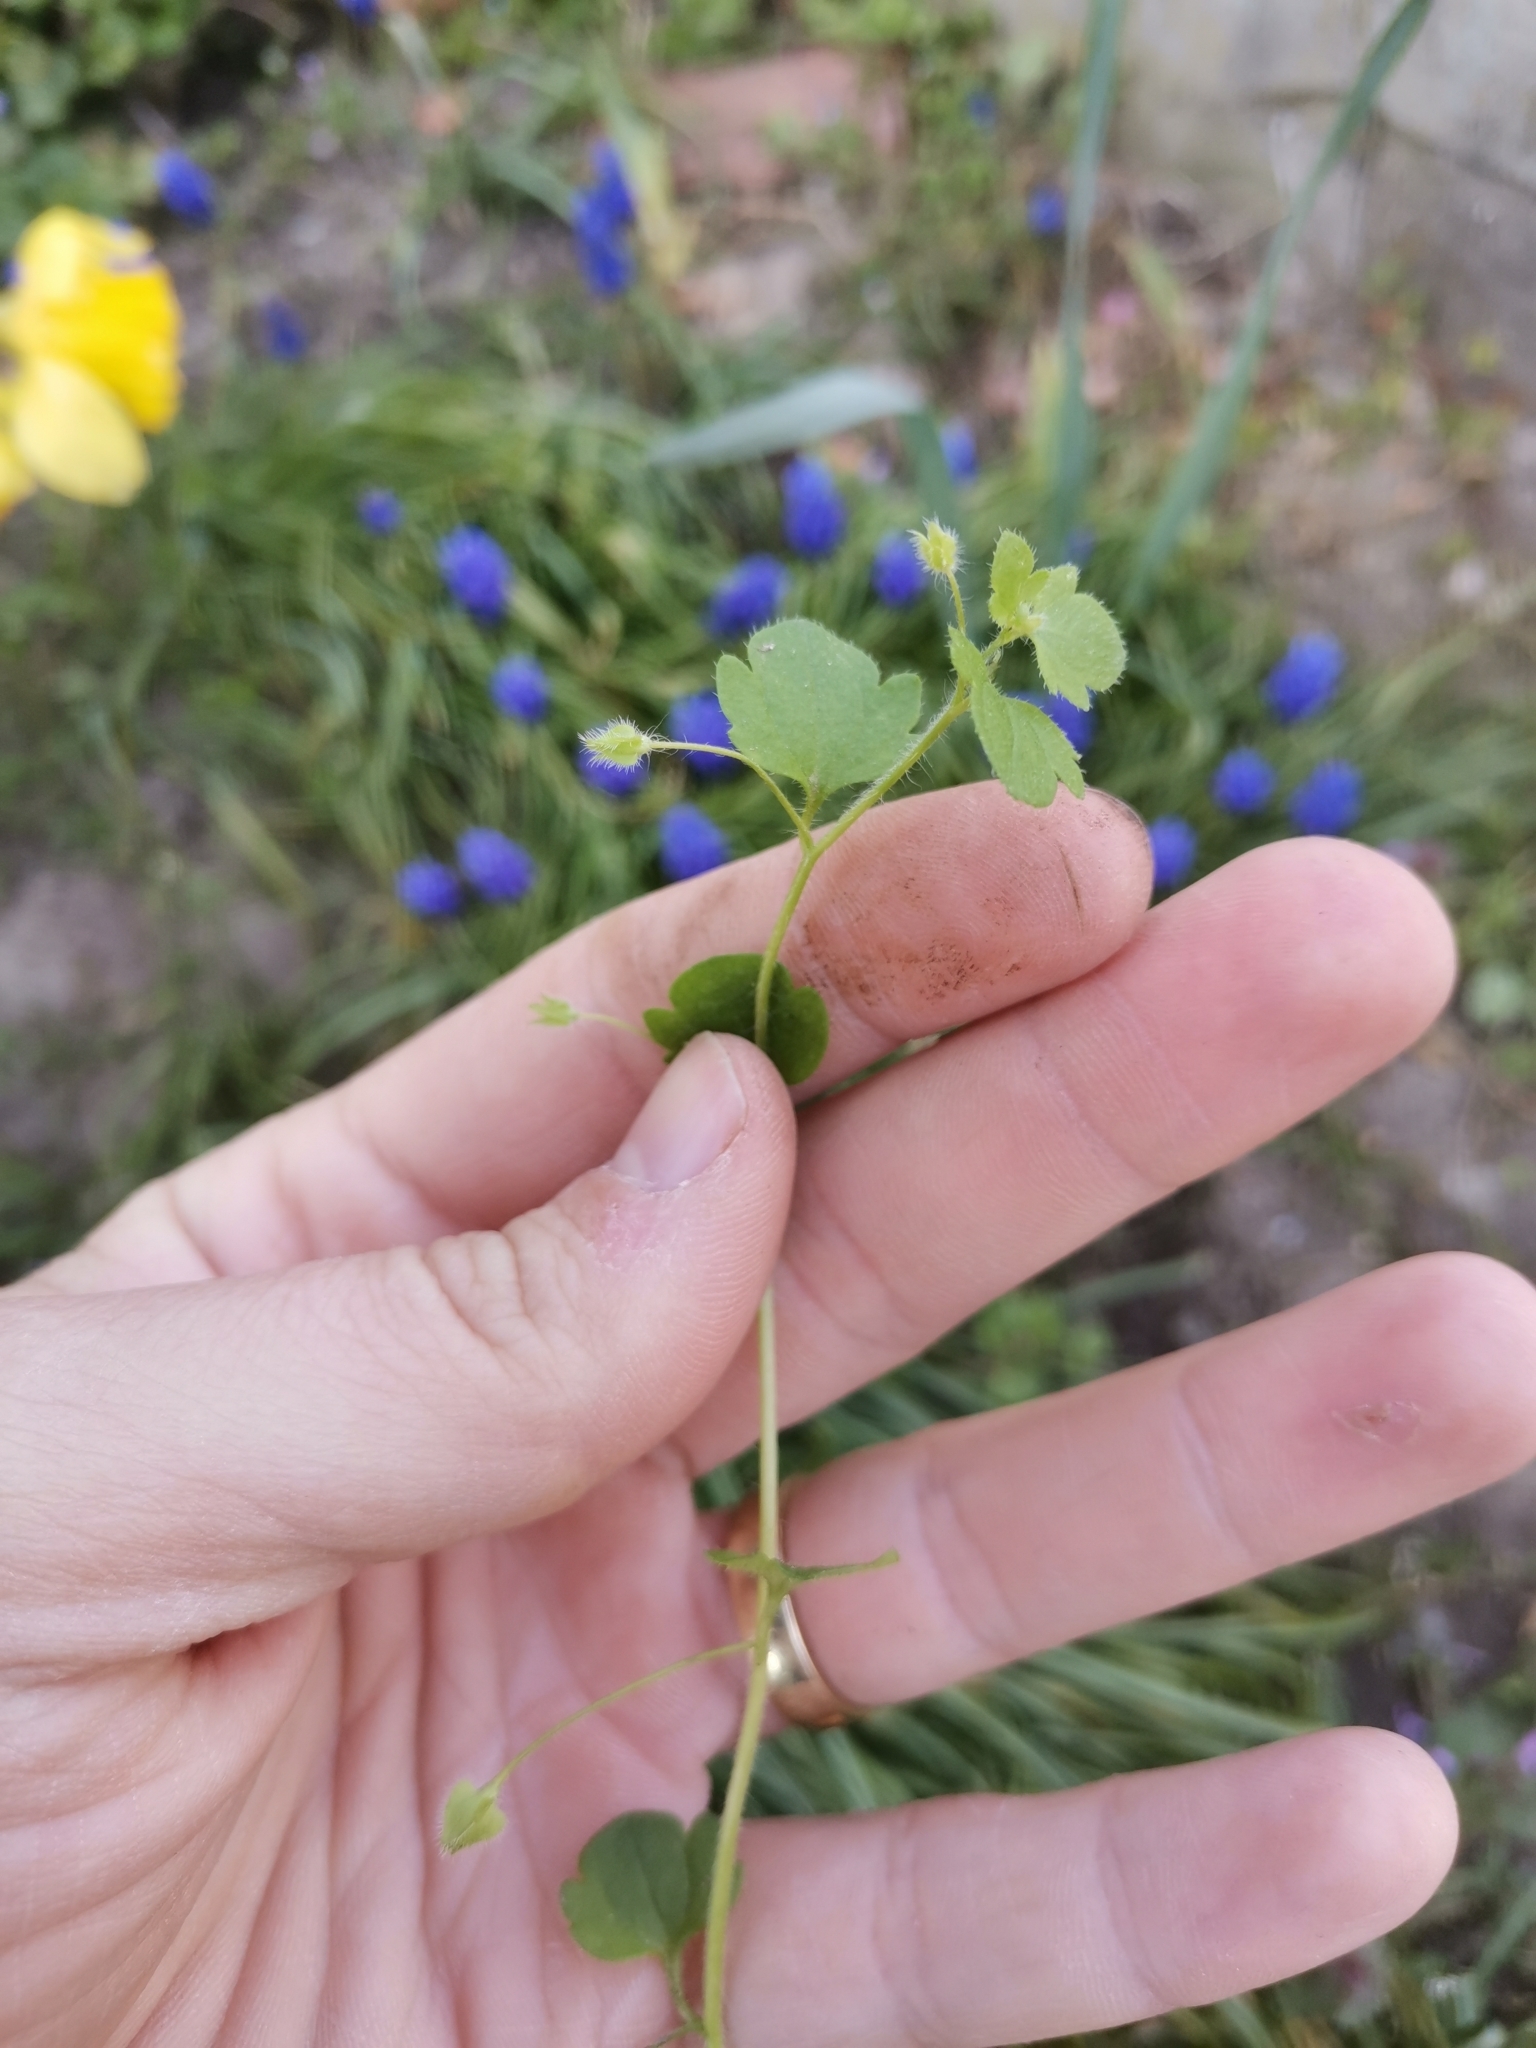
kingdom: Plantae
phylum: Tracheophyta
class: Magnoliopsida
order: Lamiales
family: Plantaginaceae
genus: Veronica
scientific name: Veronica sublobata
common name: False ivy-leaved speedwell
